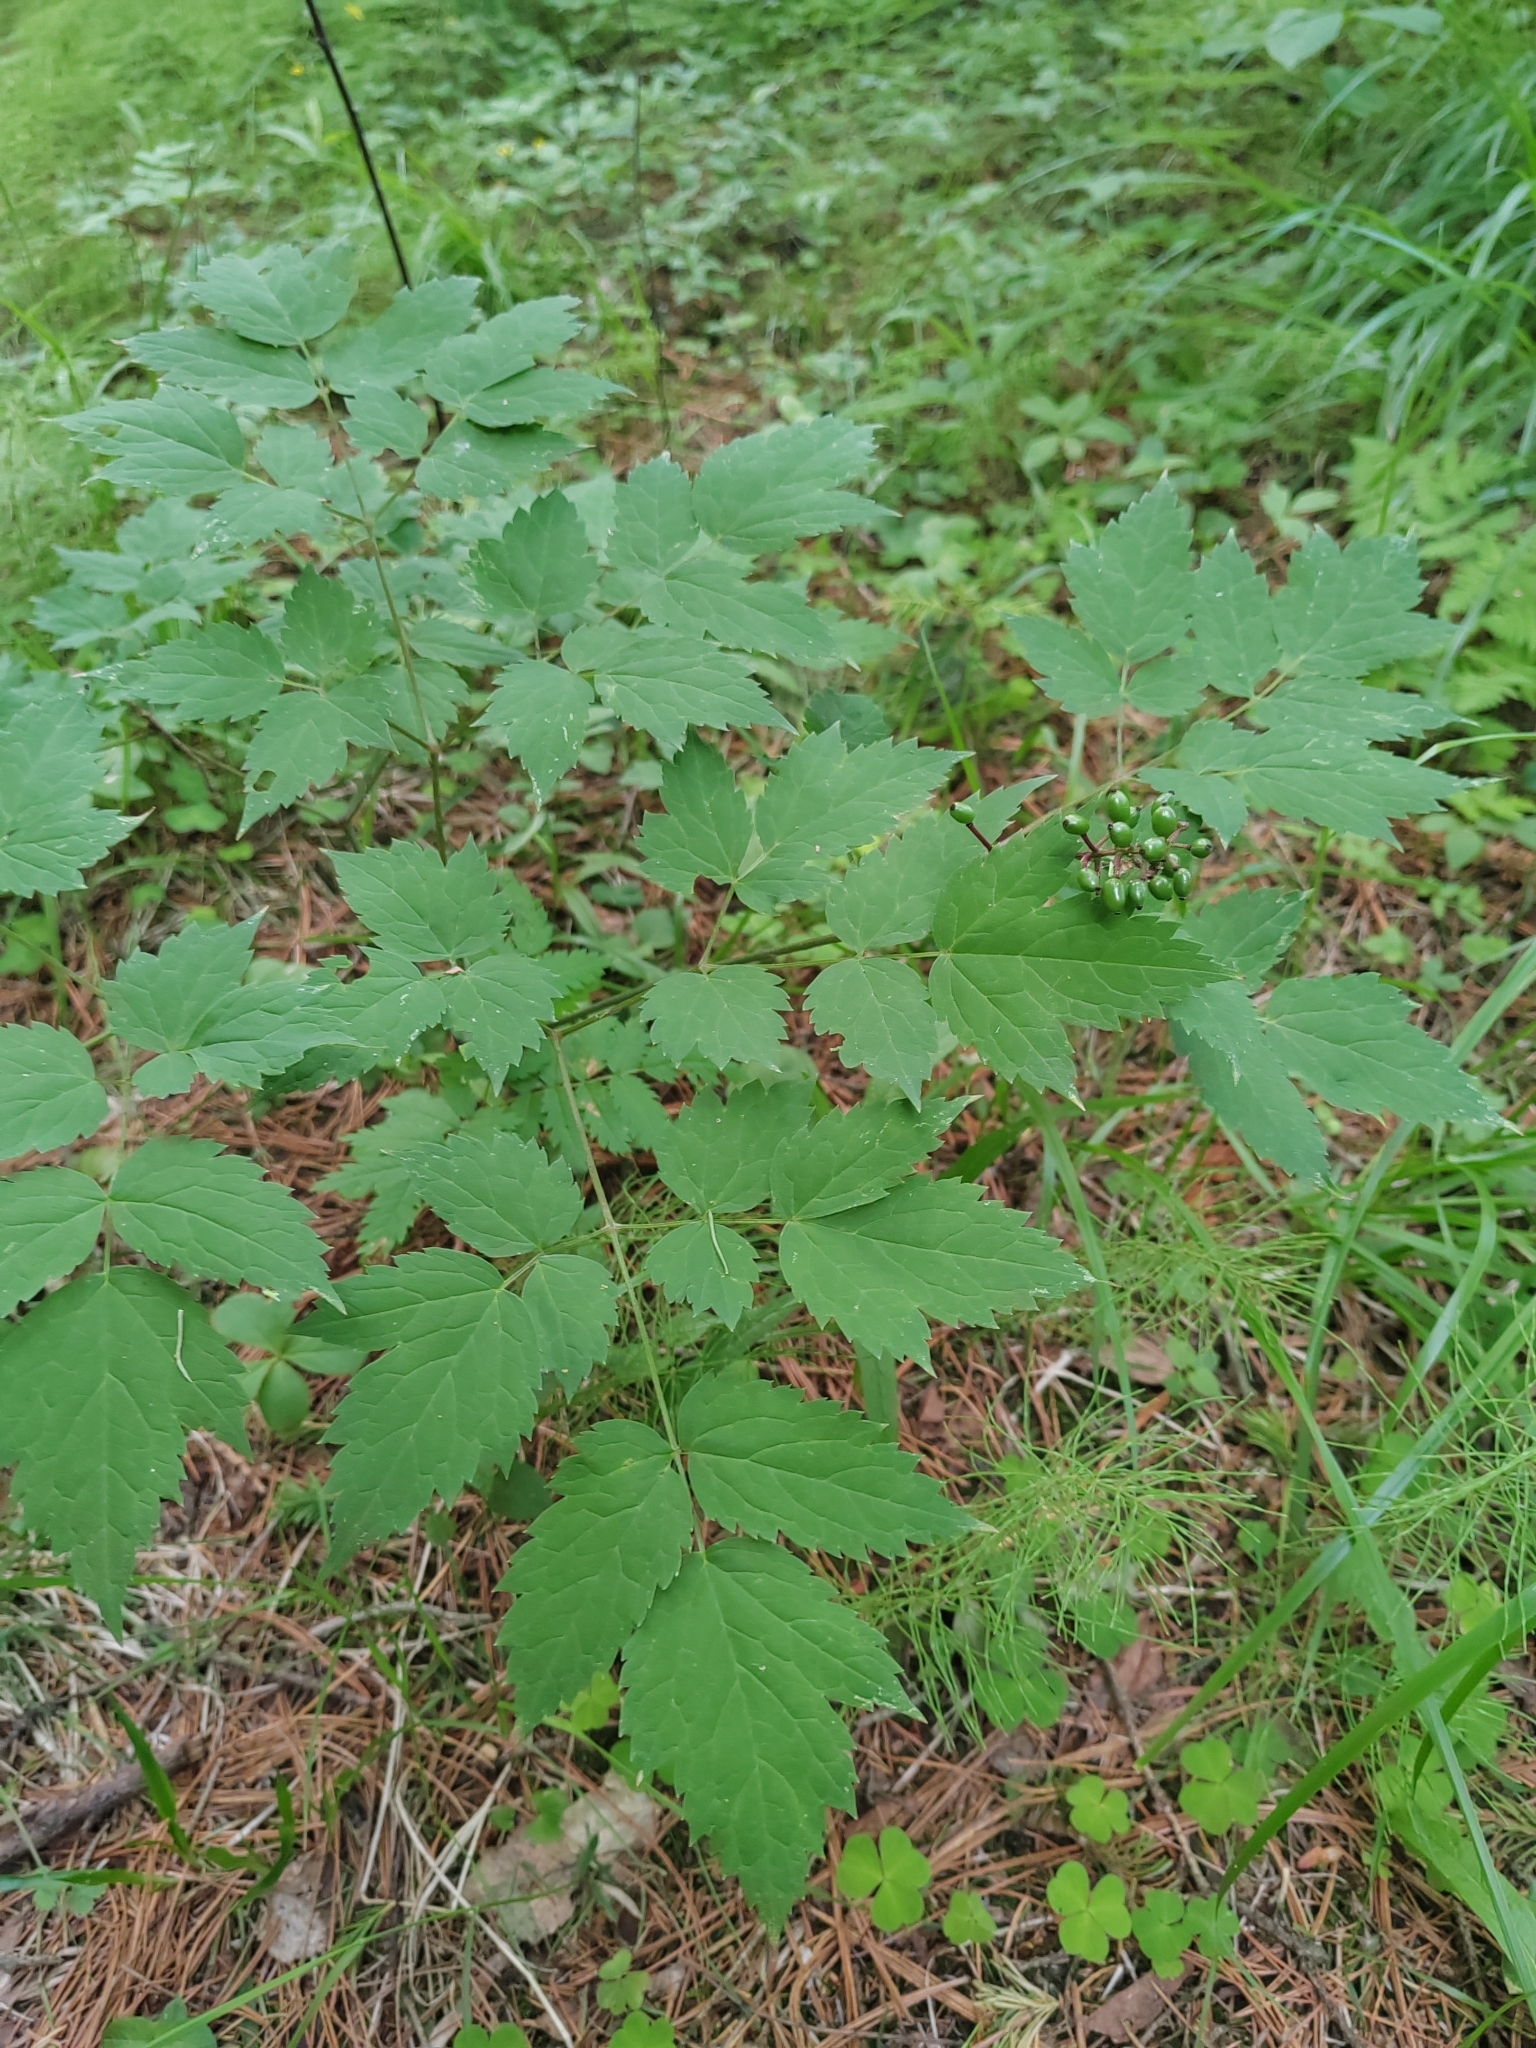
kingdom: Plantae
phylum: Tracheophyta
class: Magnoliopsida
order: Ranunculales
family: Ranunculaceae
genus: Actaea
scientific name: Actaea erythrocarpa
